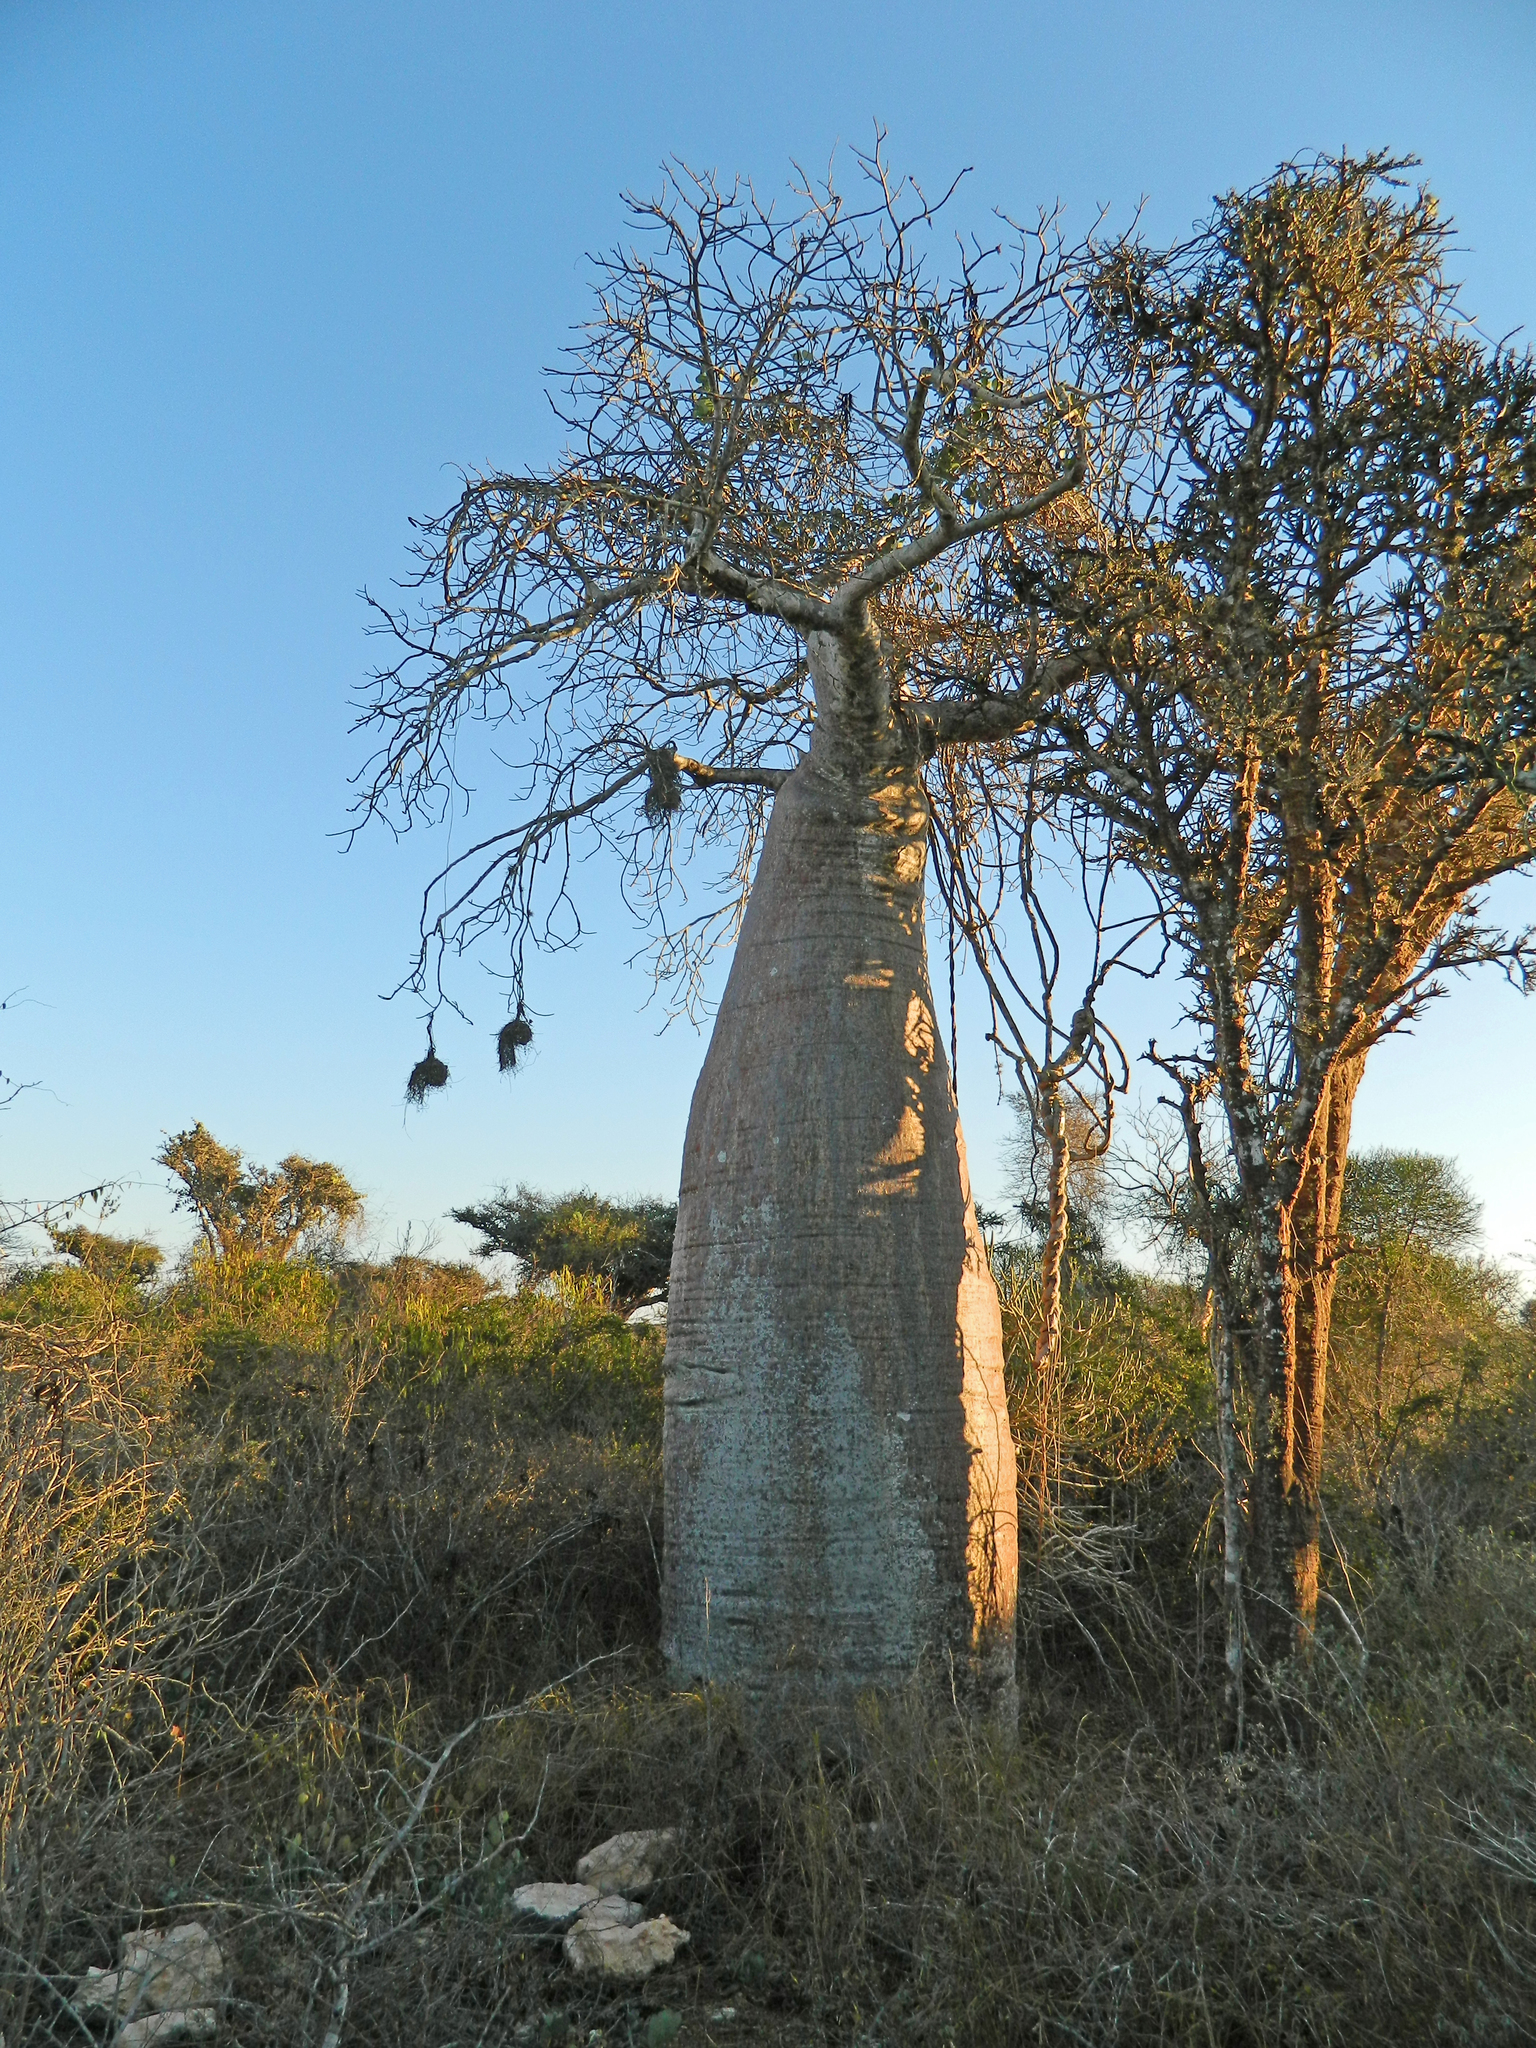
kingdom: Plantae
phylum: Tracheophyta
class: Magnoliopsida
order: Malvales
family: Malvaceae
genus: Adansonia
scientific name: Adansonia rubrostipa
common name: Fony baobab
